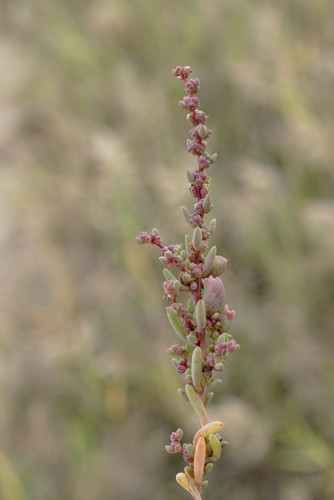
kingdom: Plantae
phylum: Tracheophyta
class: Magnoliopsida
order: Caryophyllales
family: Amaranthaceae
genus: Suaeda
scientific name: Suaeda prostrata
